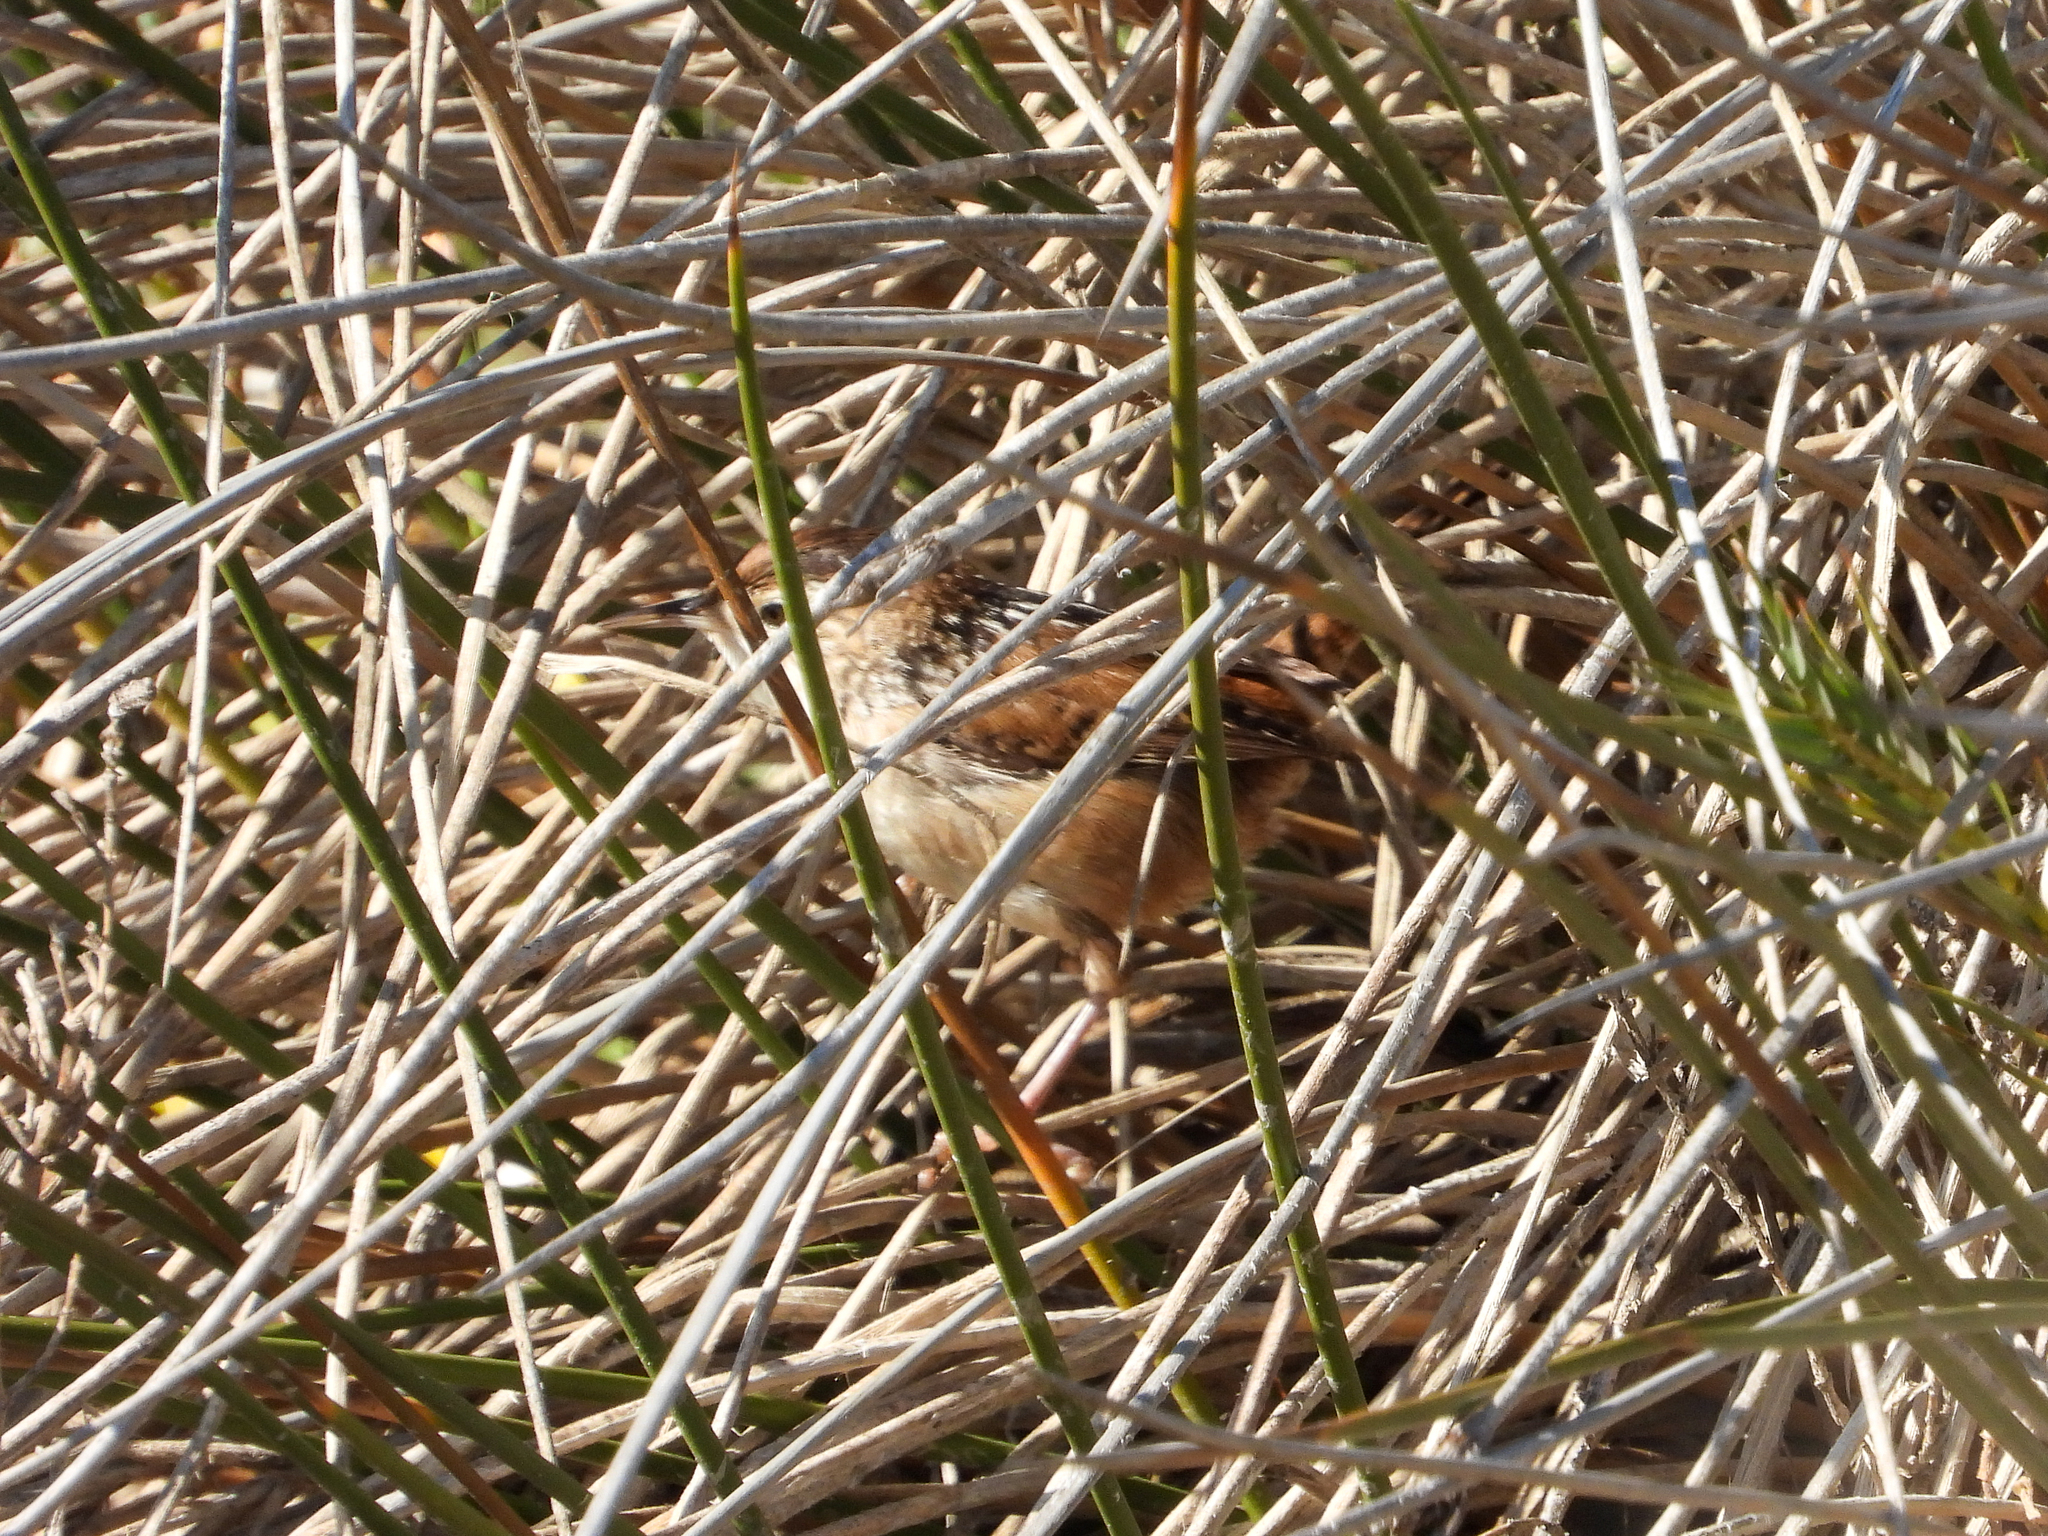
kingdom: Animalia
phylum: Chordata
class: Aves
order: Passeriformes
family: Troglodytidae
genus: Cistothorus
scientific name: Cistothorus palustris
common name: Marsh wren
